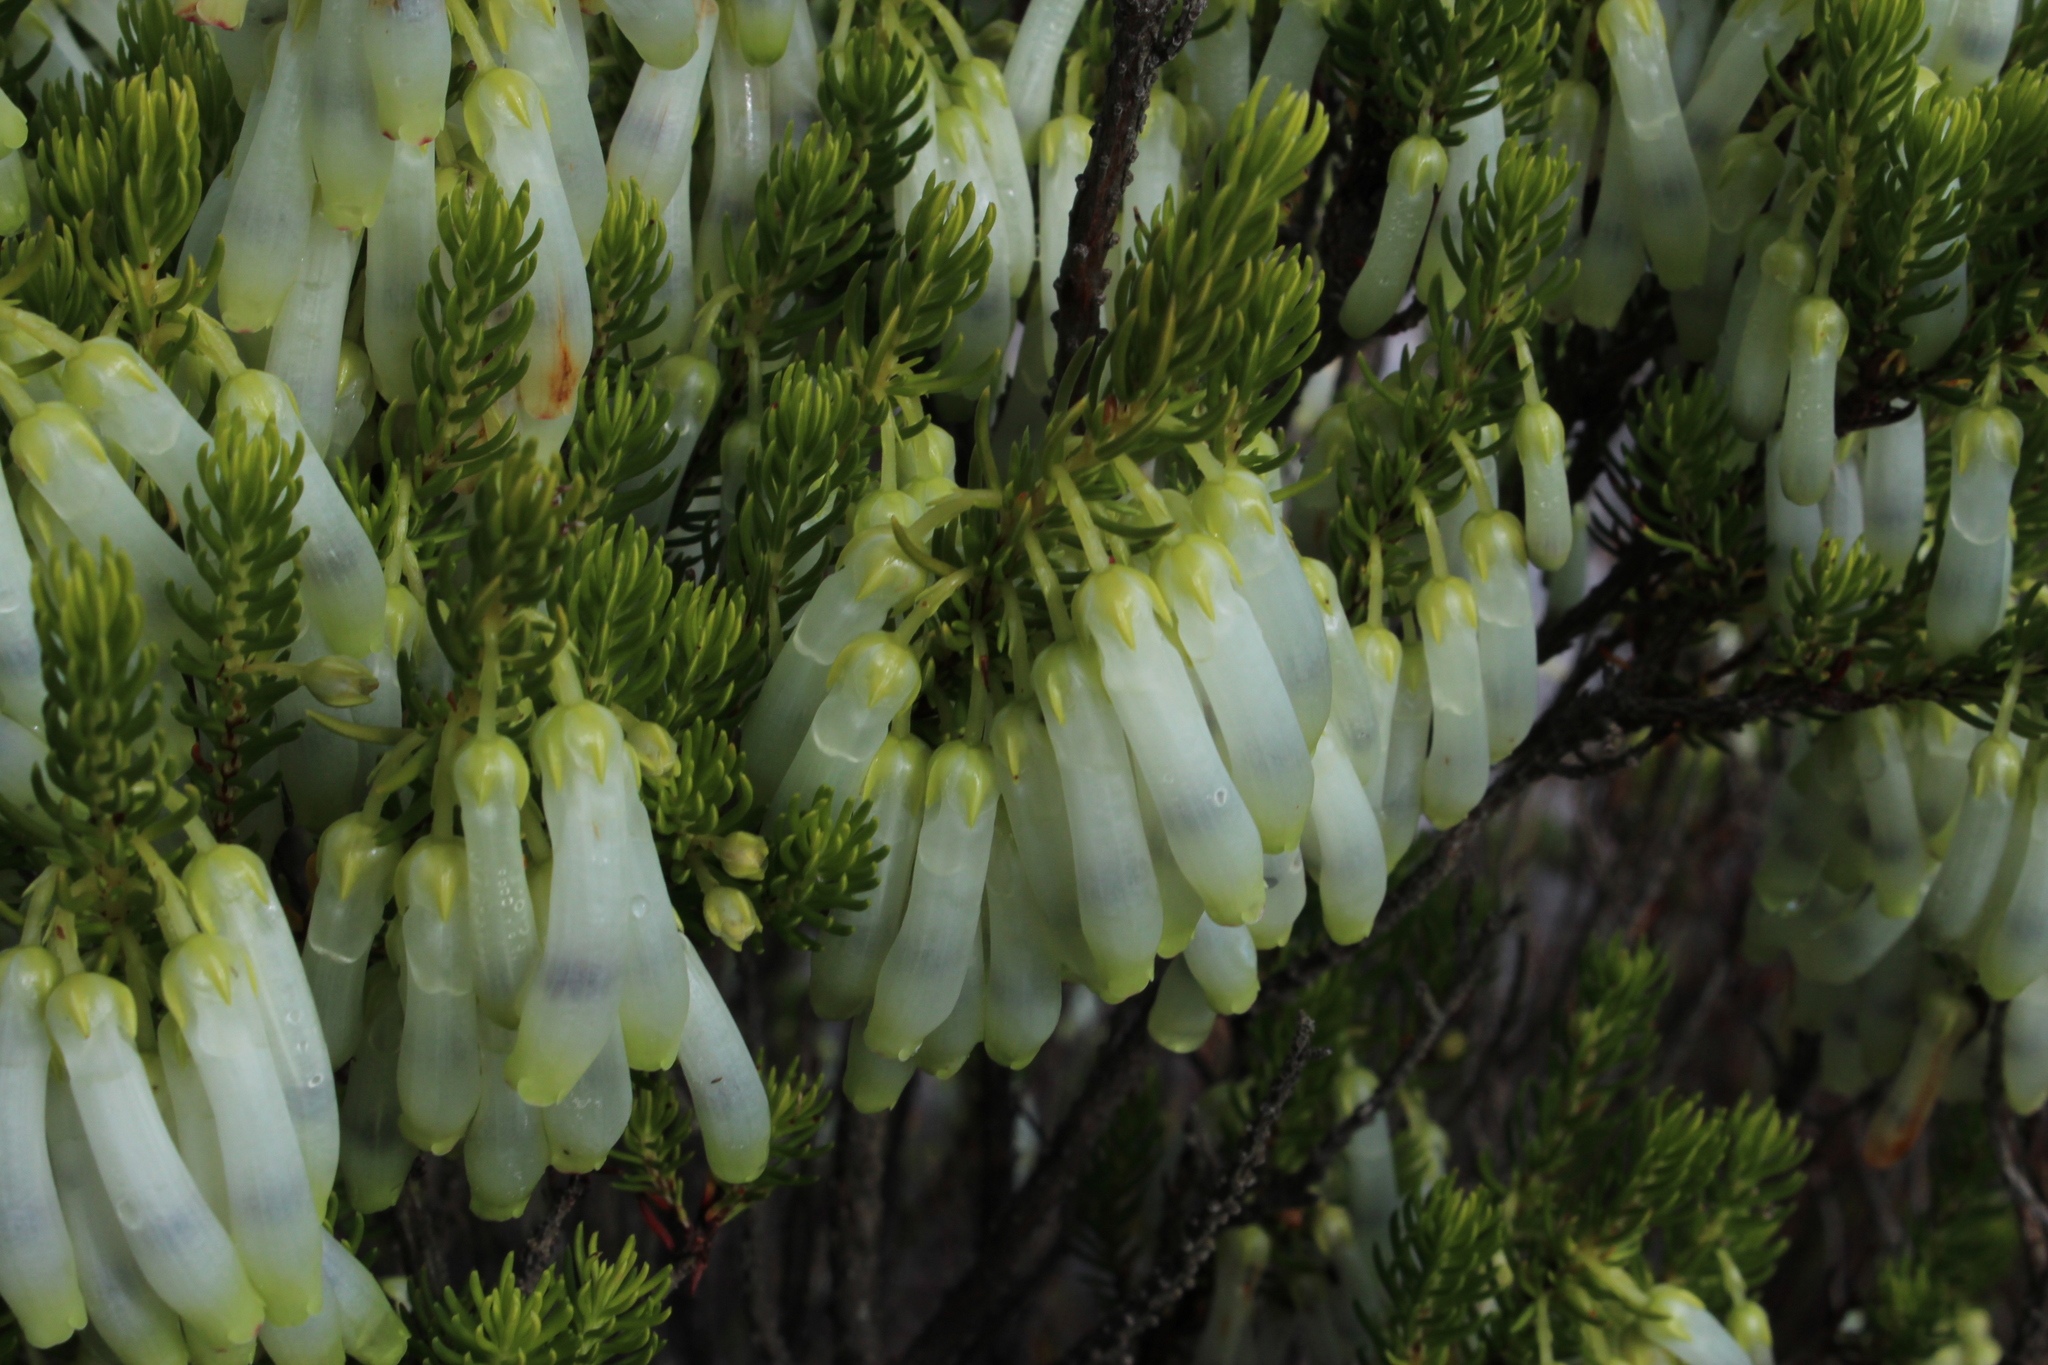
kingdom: Plantae
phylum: Tracheophyta
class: Magnoliopsida
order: Ericales
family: Ericaceae
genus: Erica
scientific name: Erica mammosa
